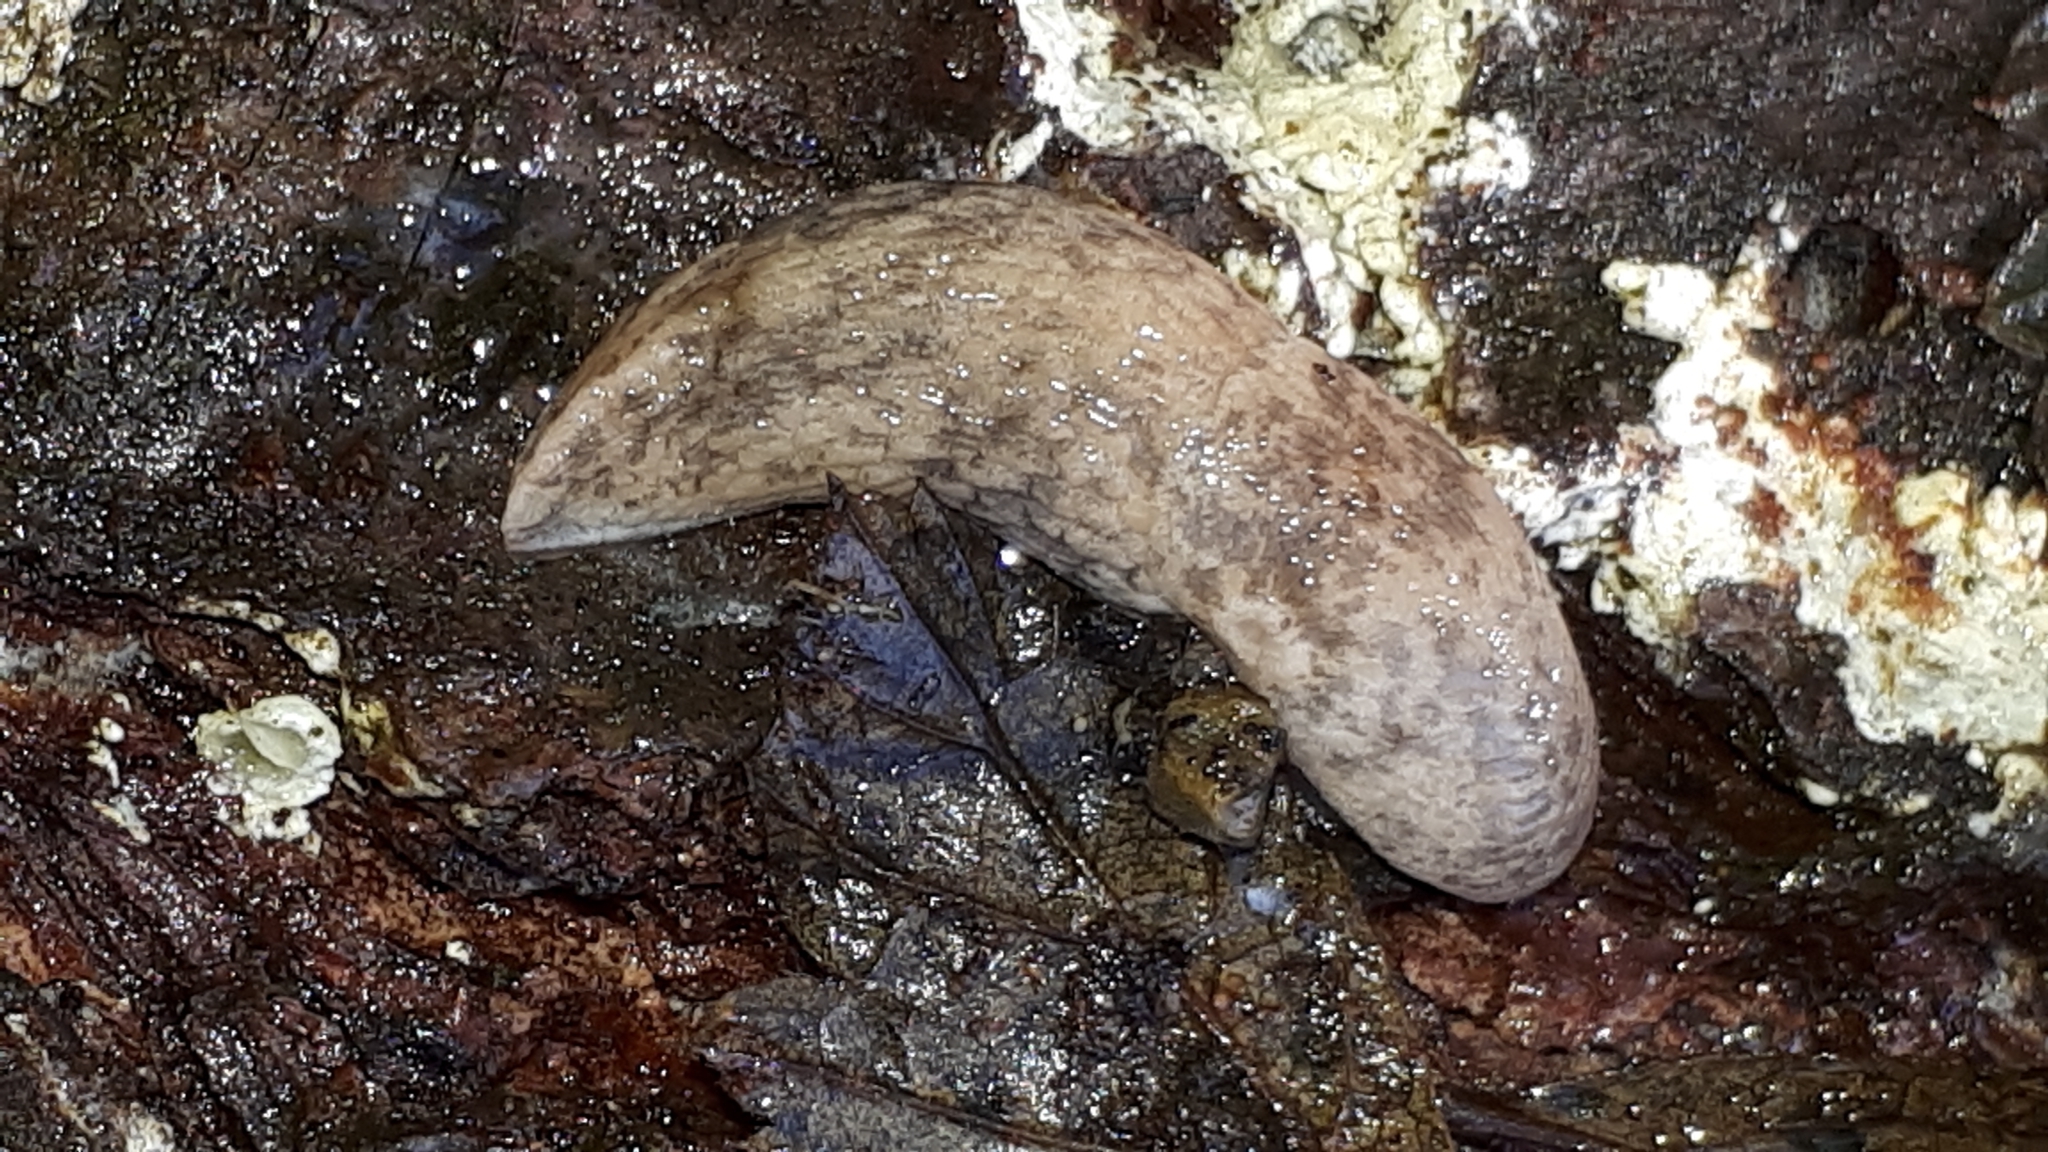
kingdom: Animalia
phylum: Mollusca
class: Gastropoda
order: Stylommatophora
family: Agriolimacidae
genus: Deroceras
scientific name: Deroceras reticulatum
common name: Gray field slug
